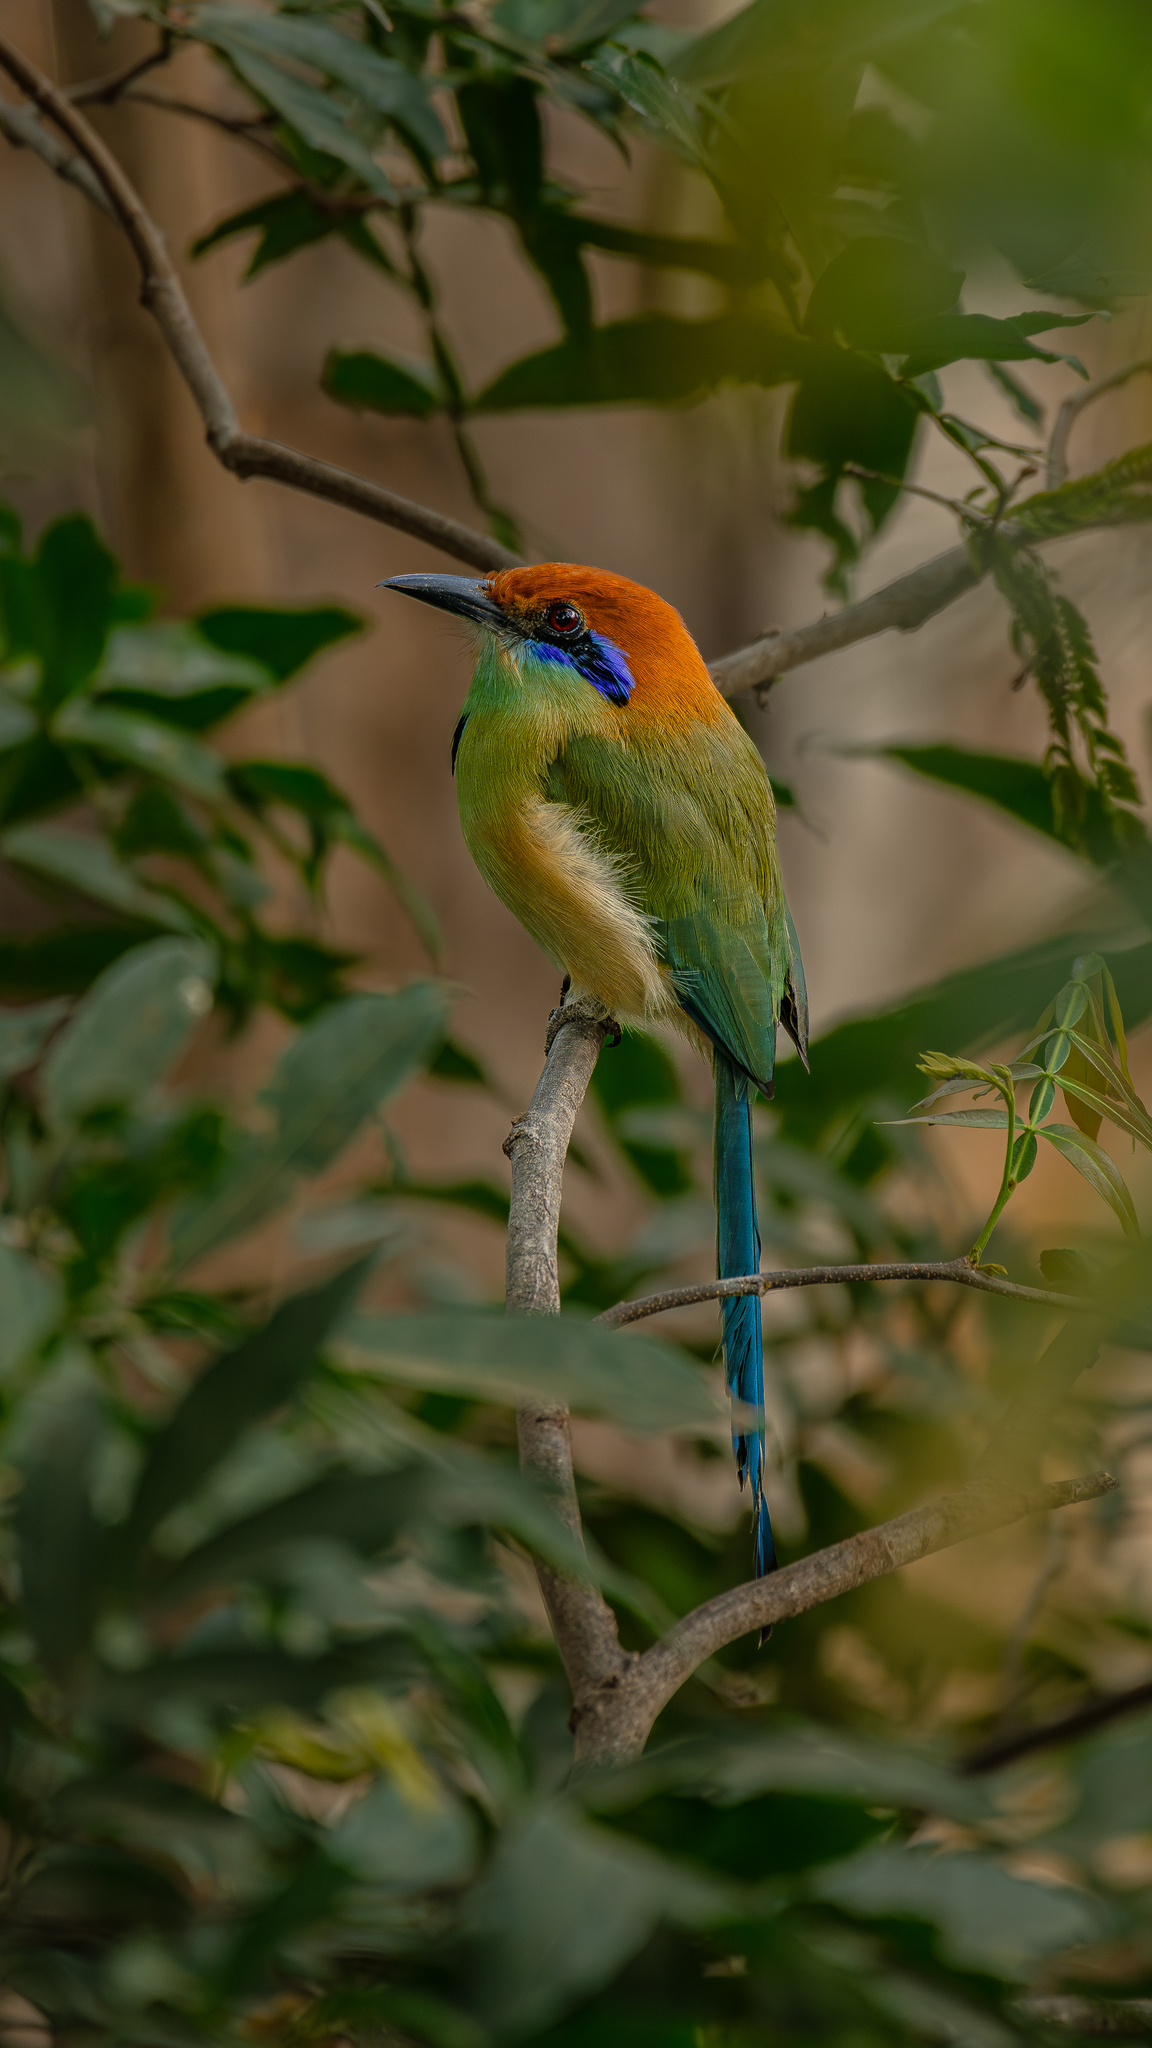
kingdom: Animalia
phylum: Chordata
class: Aves
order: Coraciiformes
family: Momotidae
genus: Momotus
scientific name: Momotus mexicanus
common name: Russet-crowned motmot
